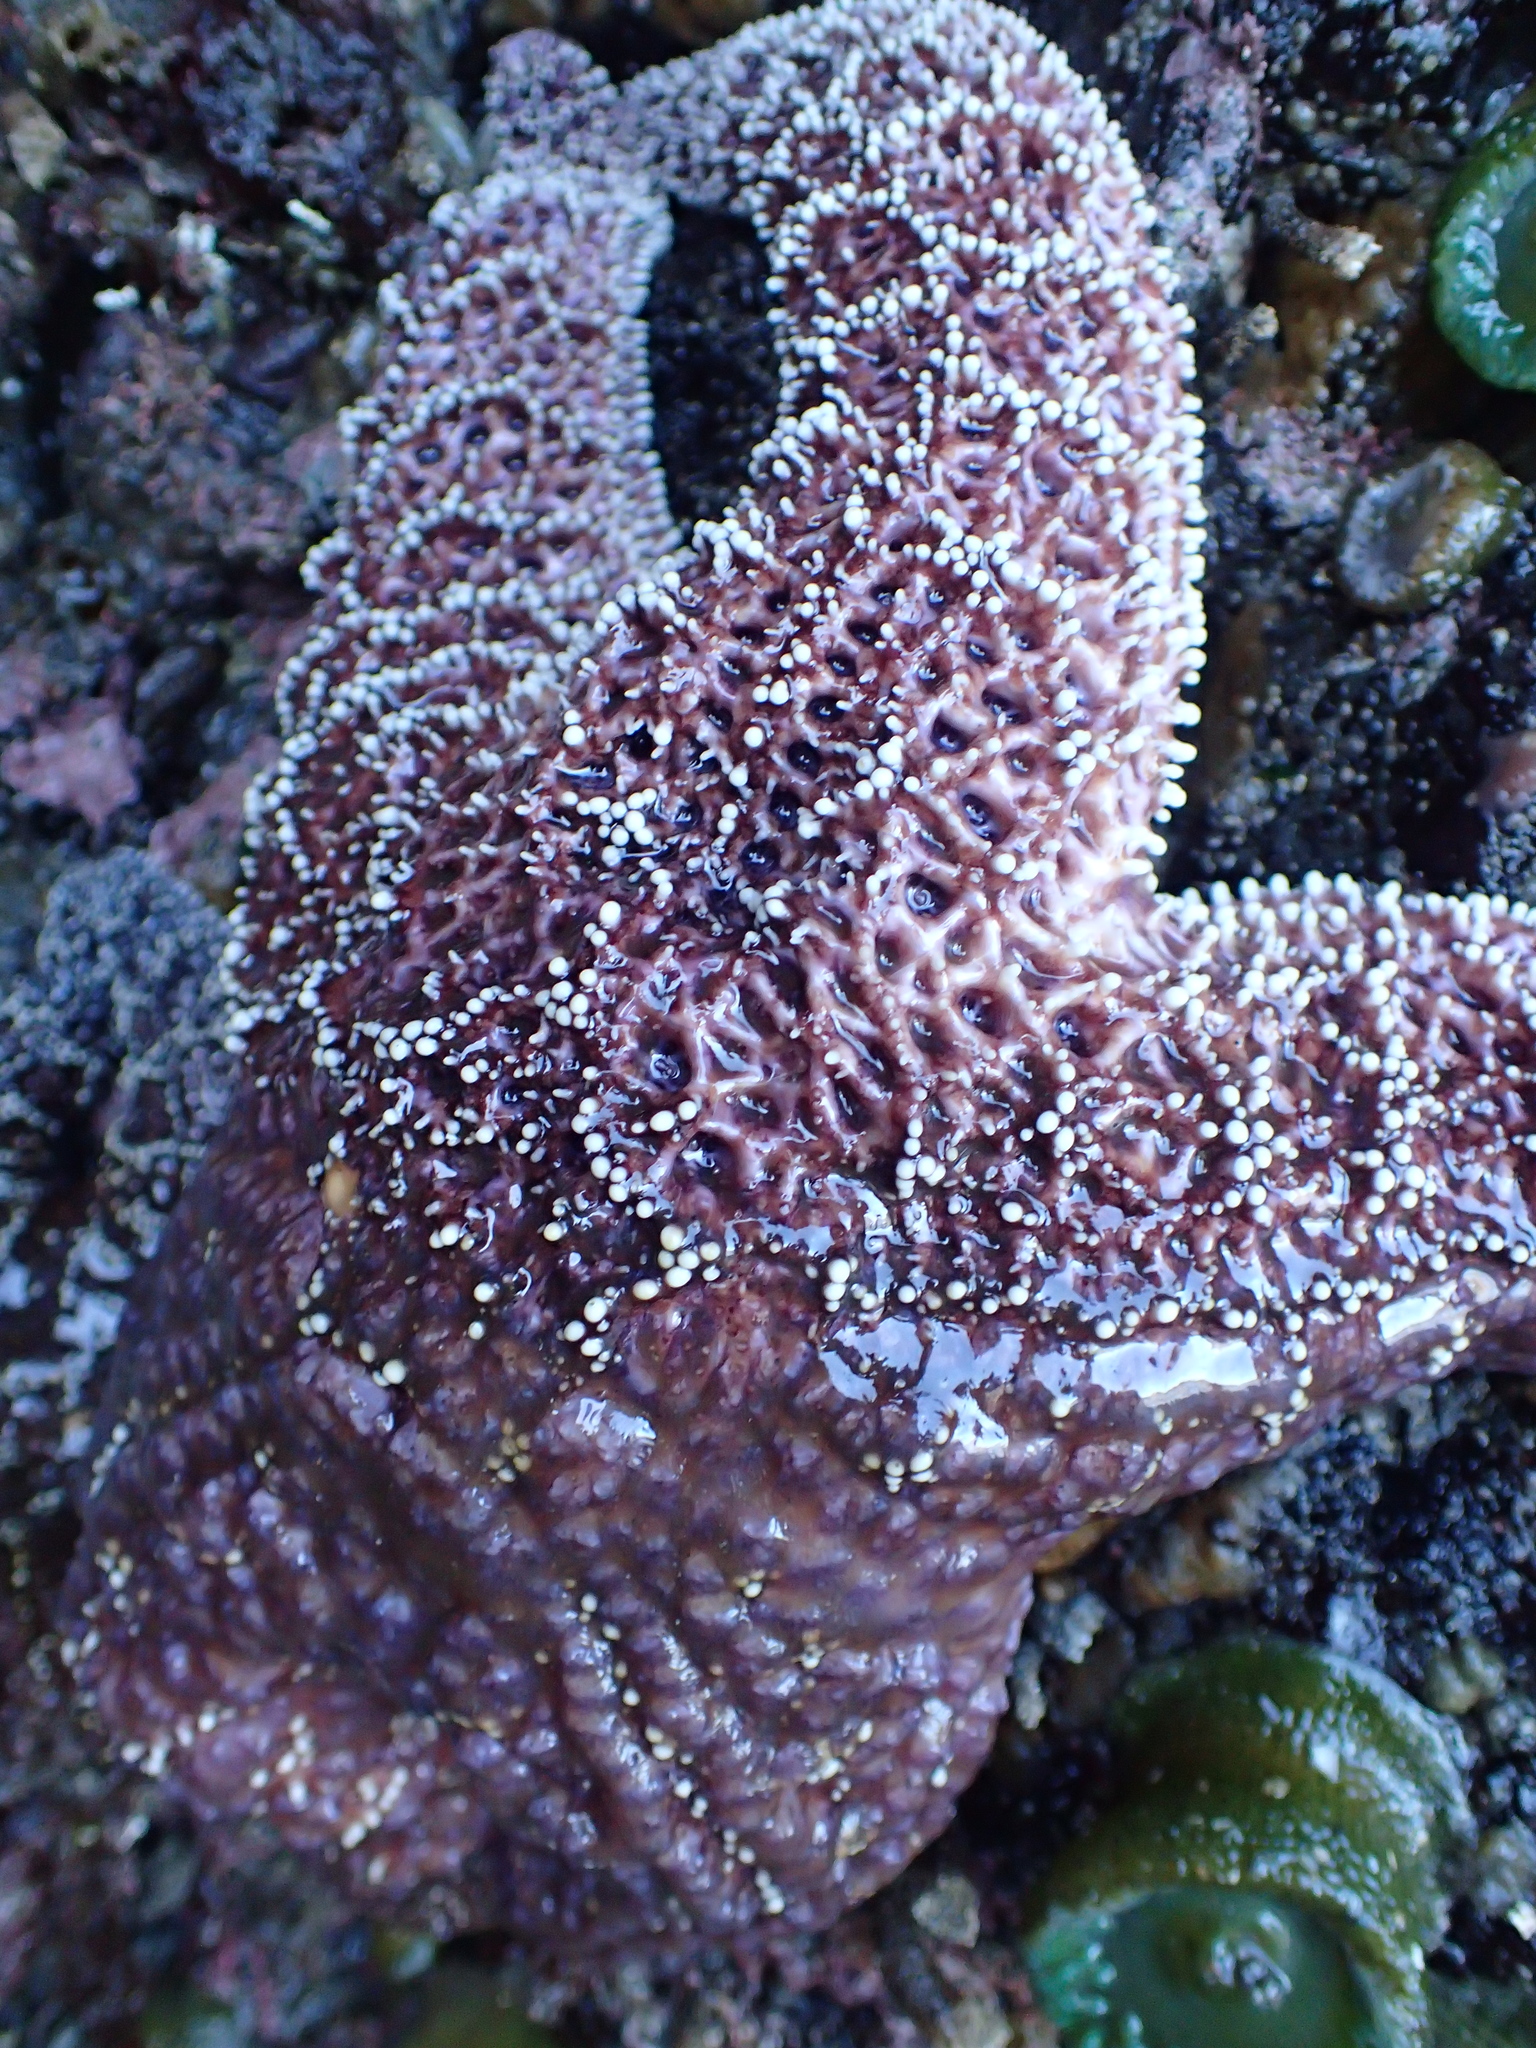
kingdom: Animalia
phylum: Echinodermata
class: Asteroidea
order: Forcipulatida
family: Asteriidae
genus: Pisaster
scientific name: Pisaster ochraceus
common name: Ochre stars
